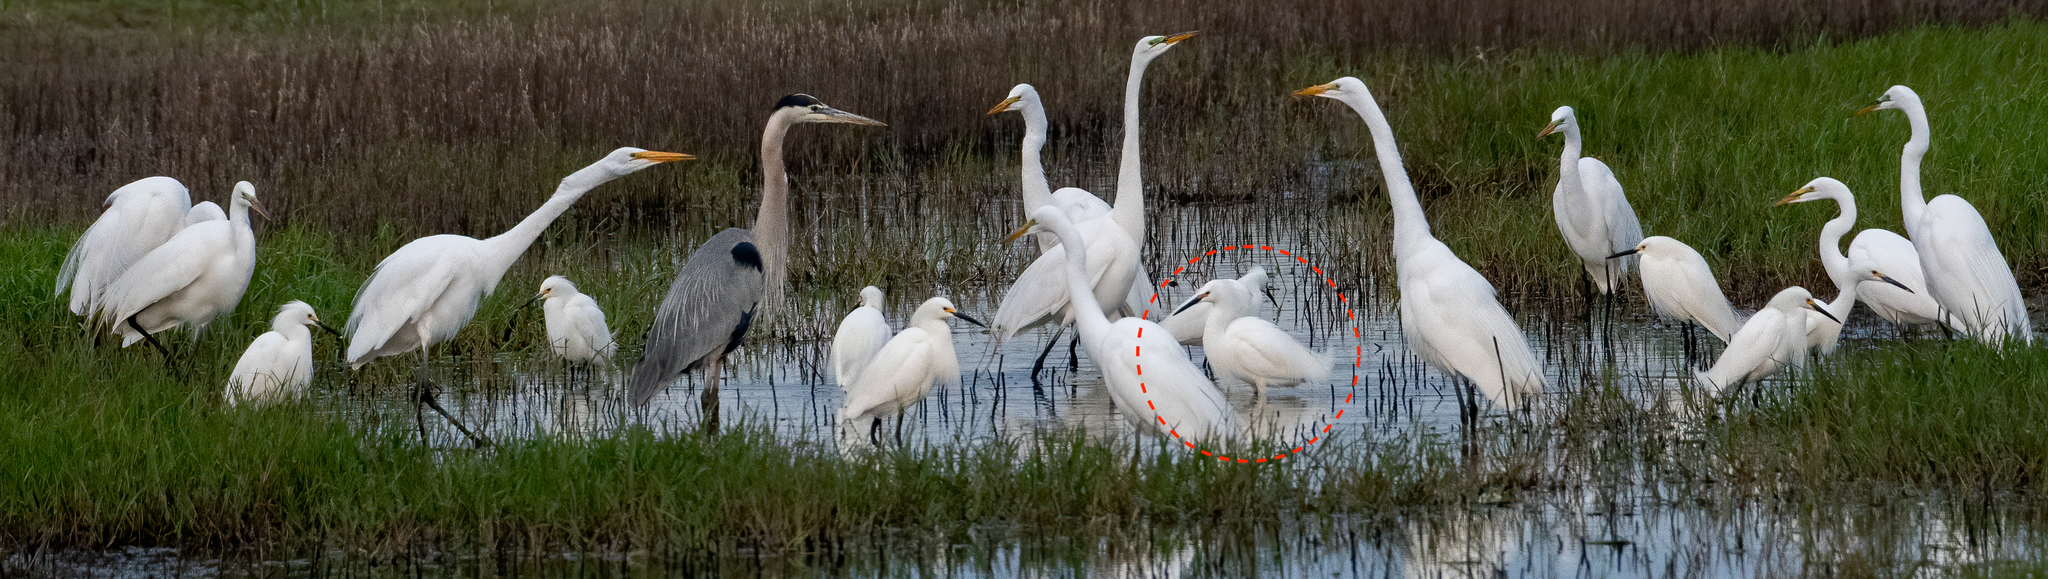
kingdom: Animalia
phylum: Chordata
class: Aves
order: Pelecaniformes
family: Ardeidae
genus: Egretta
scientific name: Egretta thula
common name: Snowy egret
